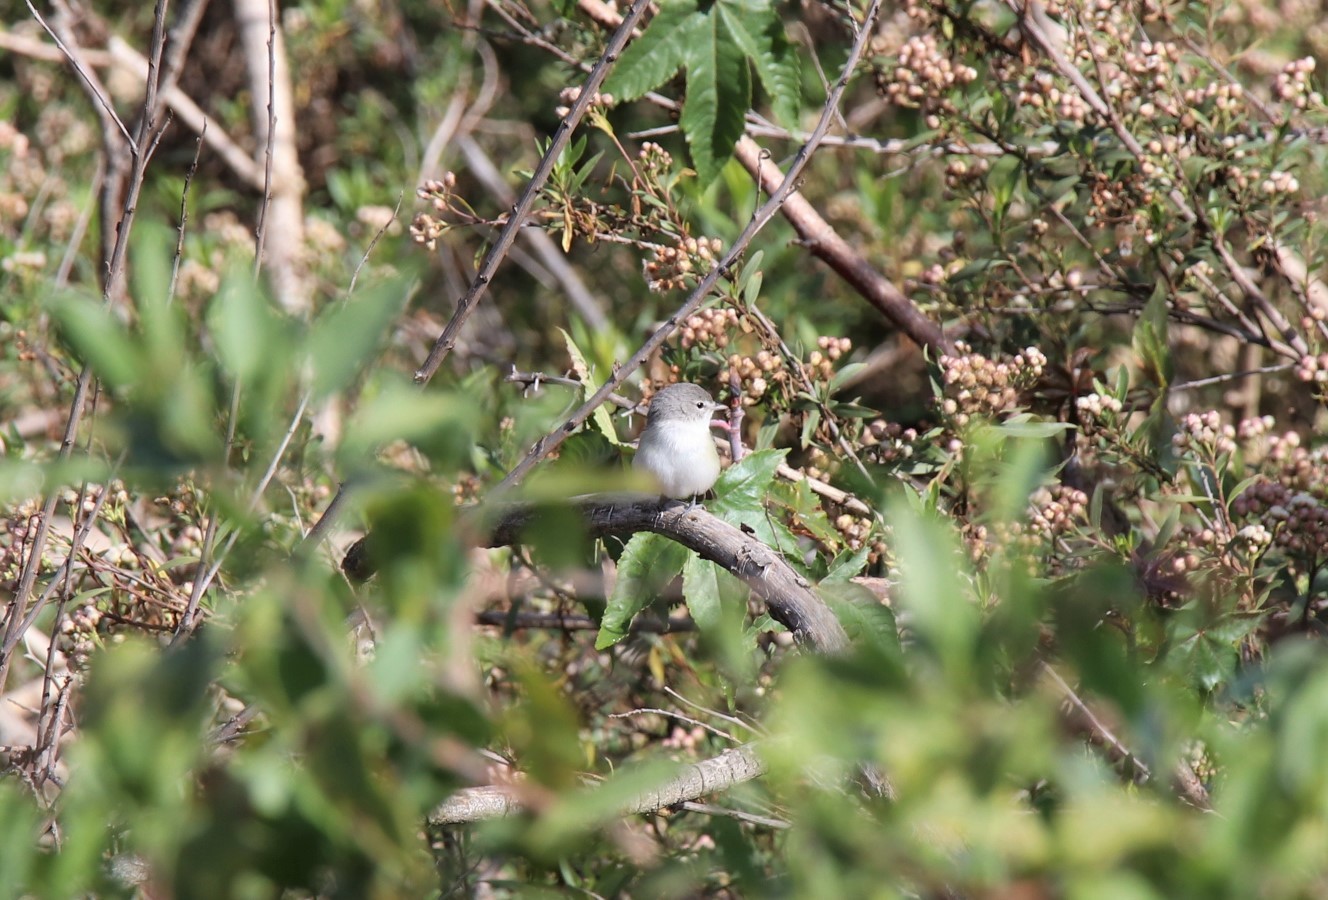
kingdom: Animalia
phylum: Chordata
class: Aves
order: Passeriformes
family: Vireonidae
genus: Vireo
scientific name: Vireo bellii
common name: Bell's vireo
